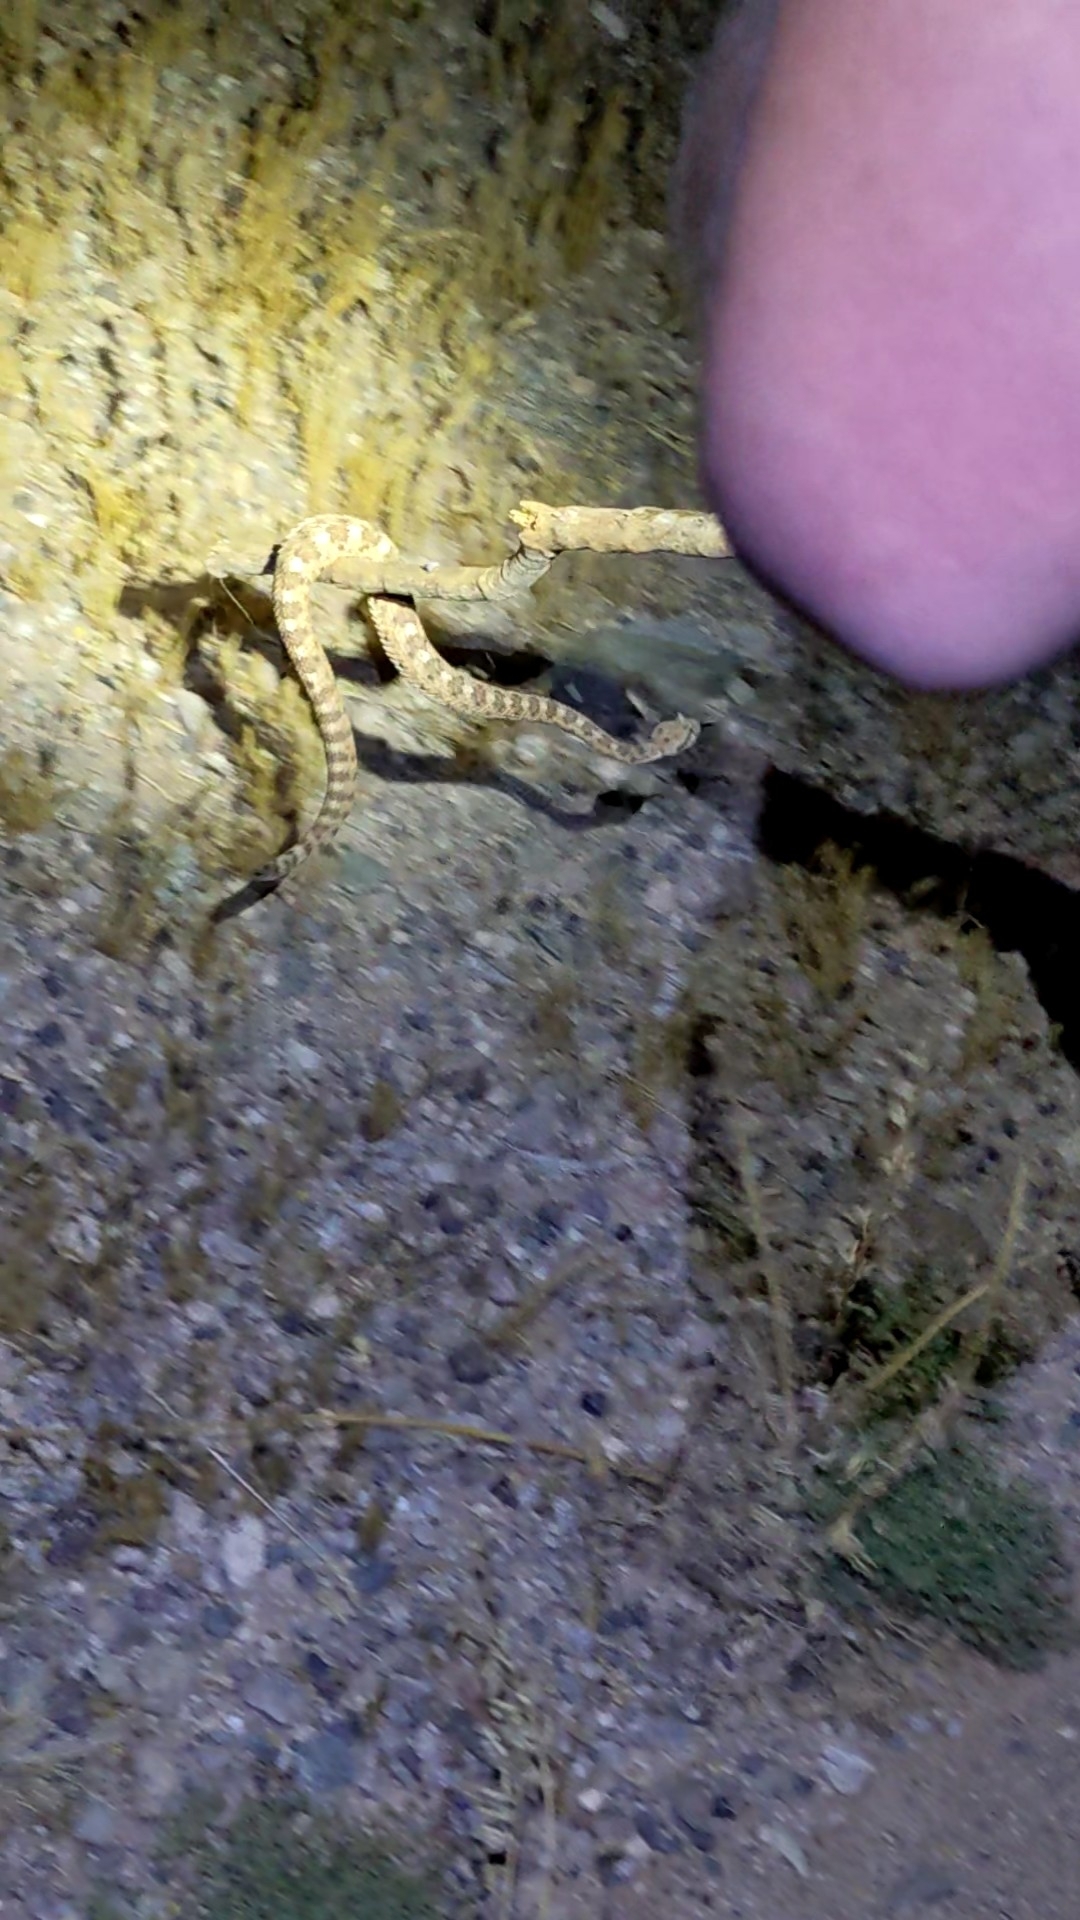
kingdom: Animalia
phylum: Chordata
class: Squamata
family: Viperidae
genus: Crotalus
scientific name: Crotalus cerastes
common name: Sidewinder
